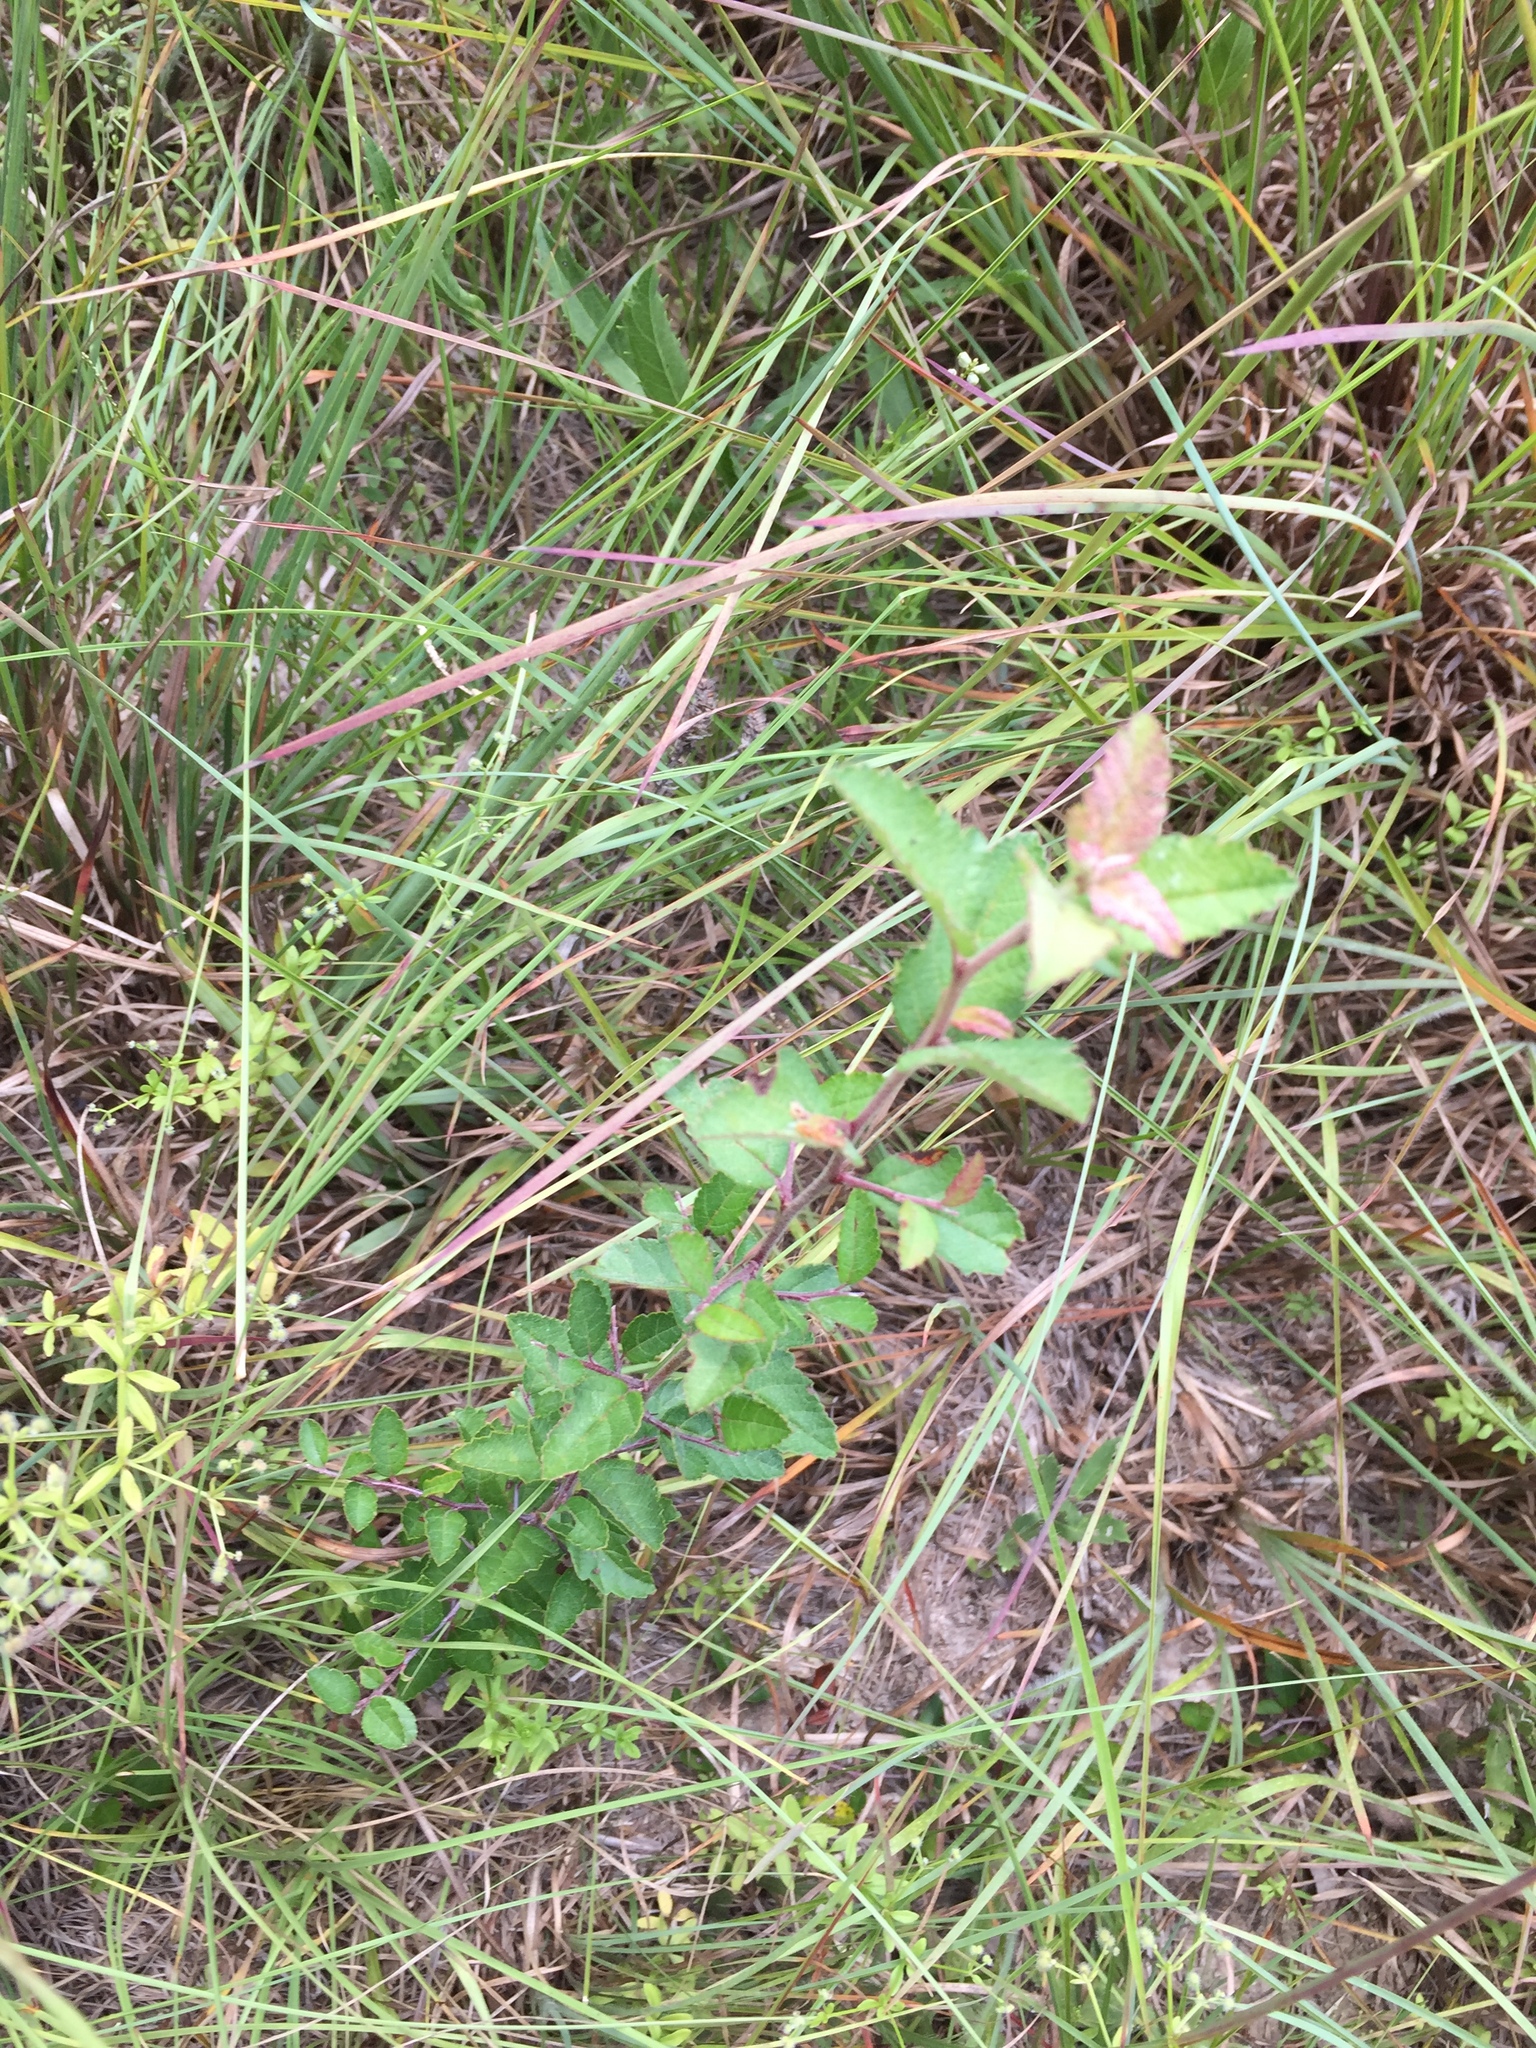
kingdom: Plantae
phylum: Tracheophyta
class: Magnoliopsida
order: Rosales
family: Rosaceae
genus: Malus
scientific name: Malus angustifolia
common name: Southern crab apple
